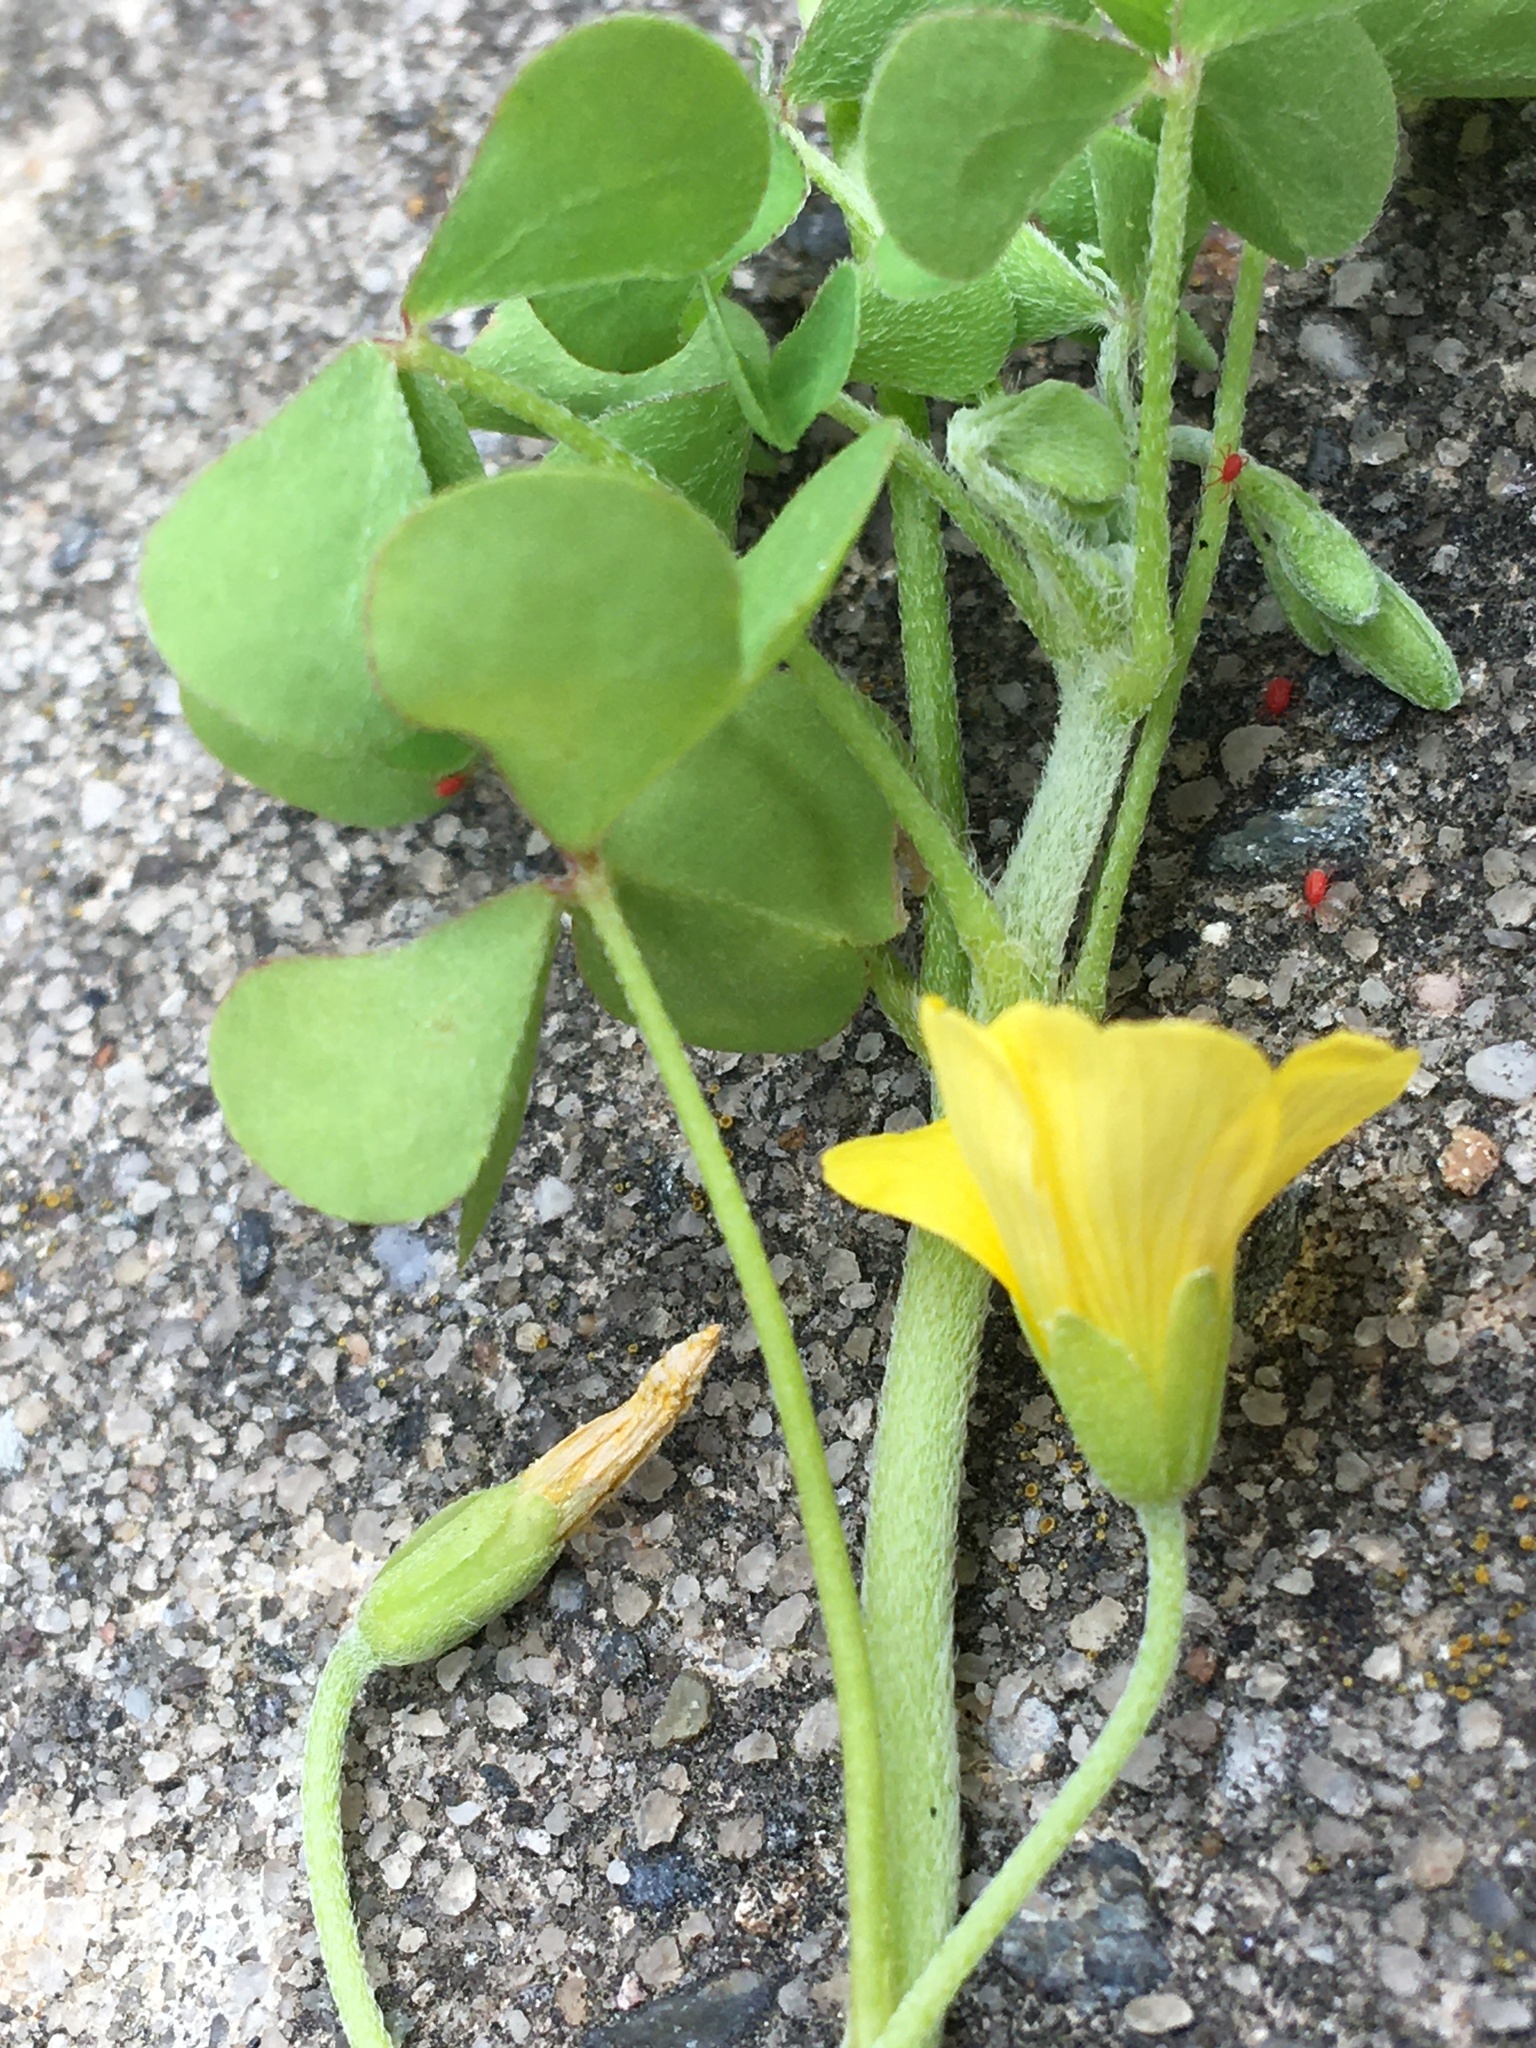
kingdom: Plantae
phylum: Tracheophyta
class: Magnoliopsida
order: Oxalidales
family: Oxalidaceae
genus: Oxalis
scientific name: Oxalis dillenii
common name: Sussex yellow-sorrel
